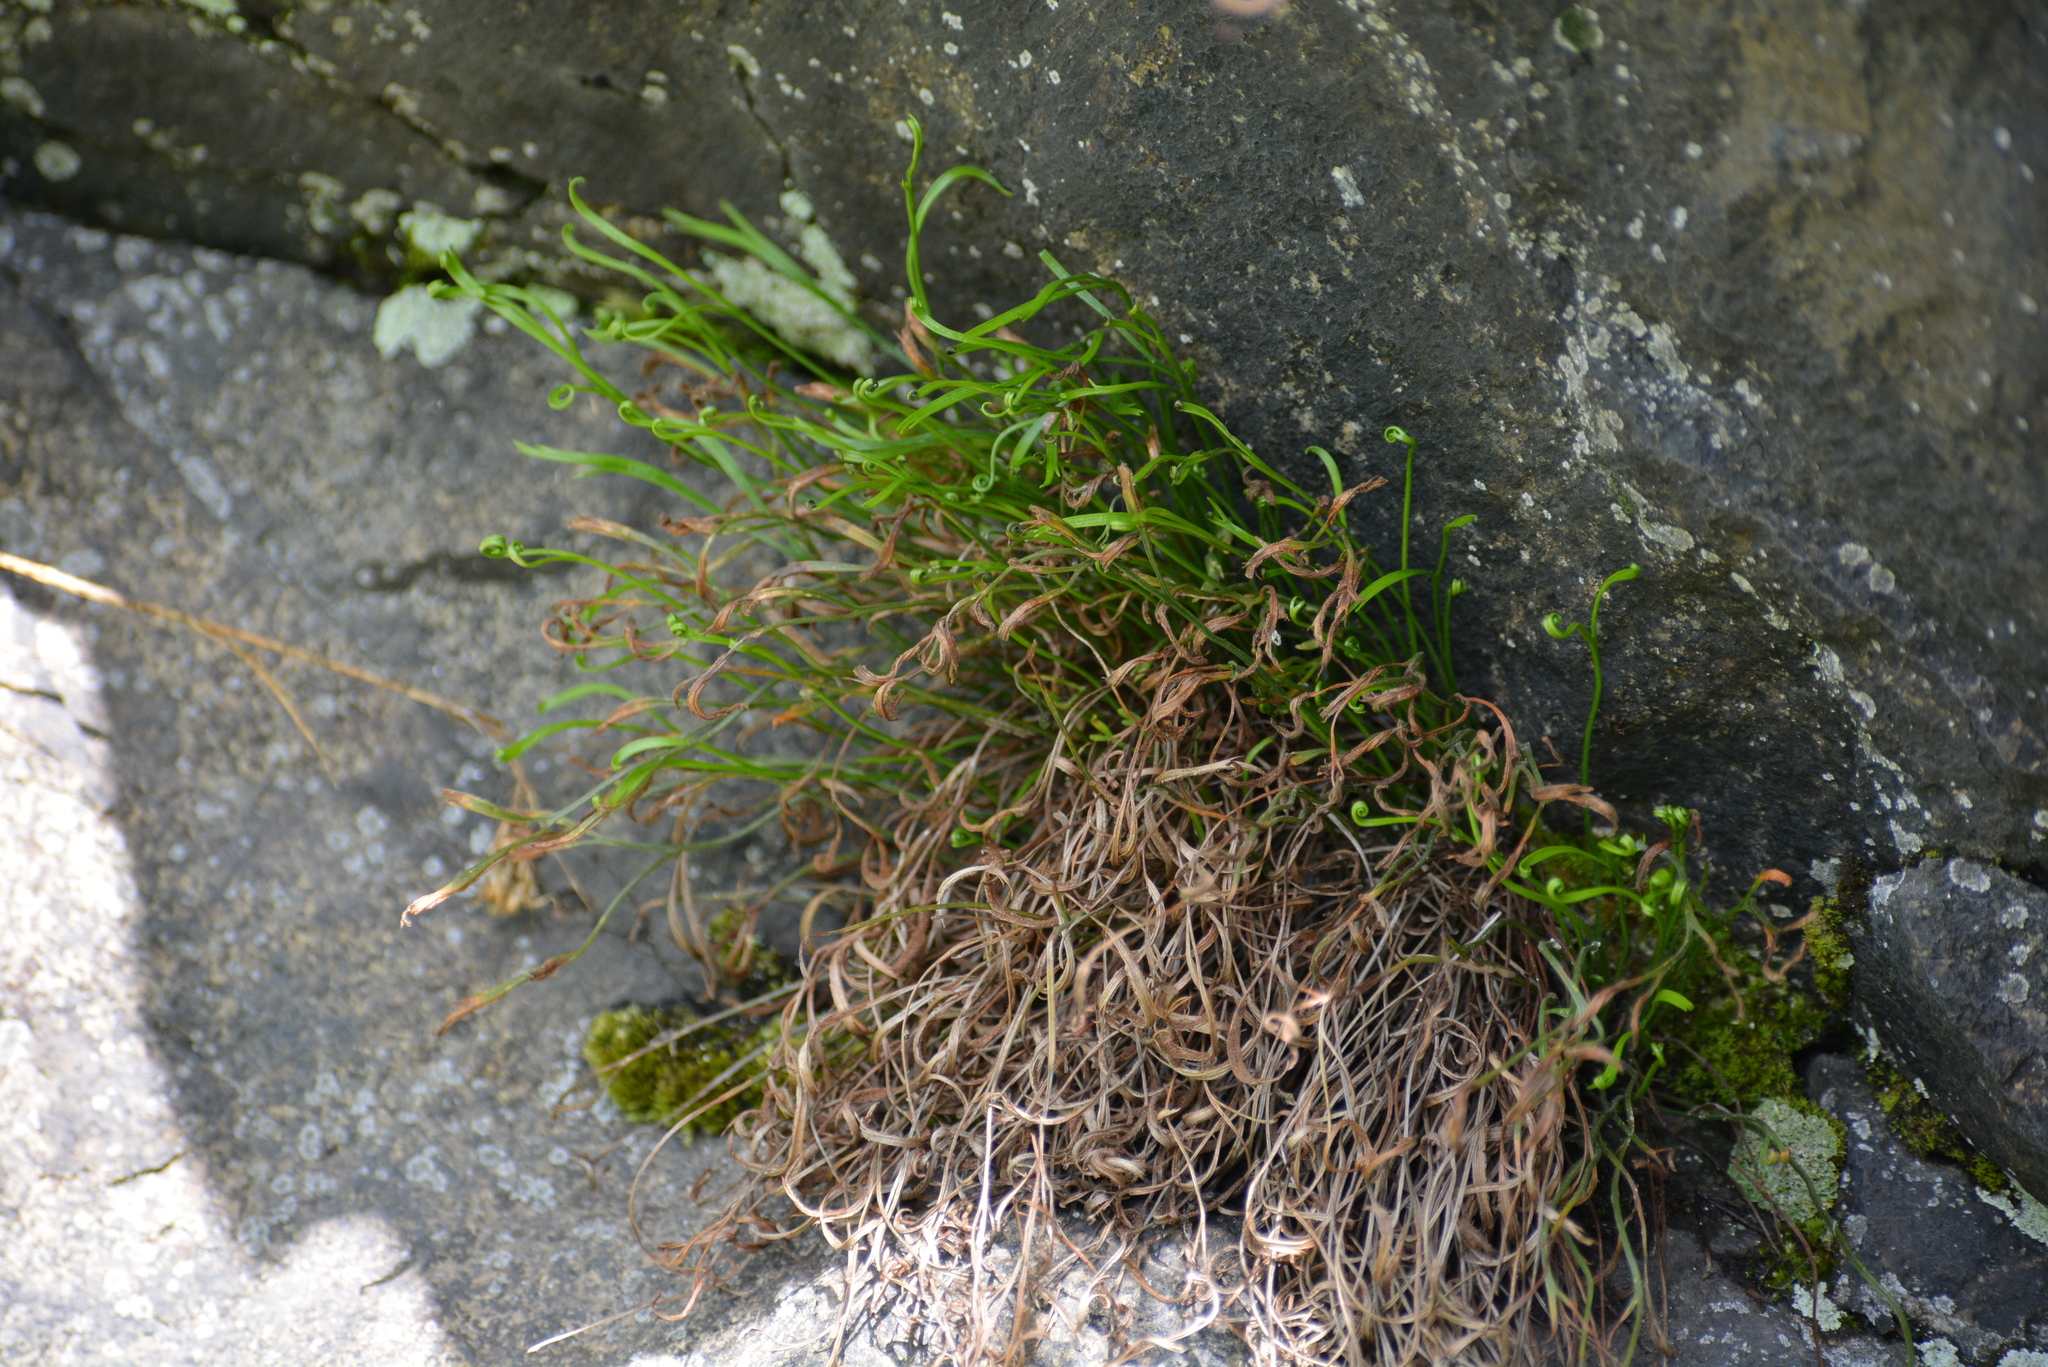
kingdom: Plantae
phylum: Tracheophyta
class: Polypodiopsida
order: Polypodiales
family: Aspleniaceae
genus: Asplenium
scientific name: Asplenium septentrionale
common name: Forked spleenwort
